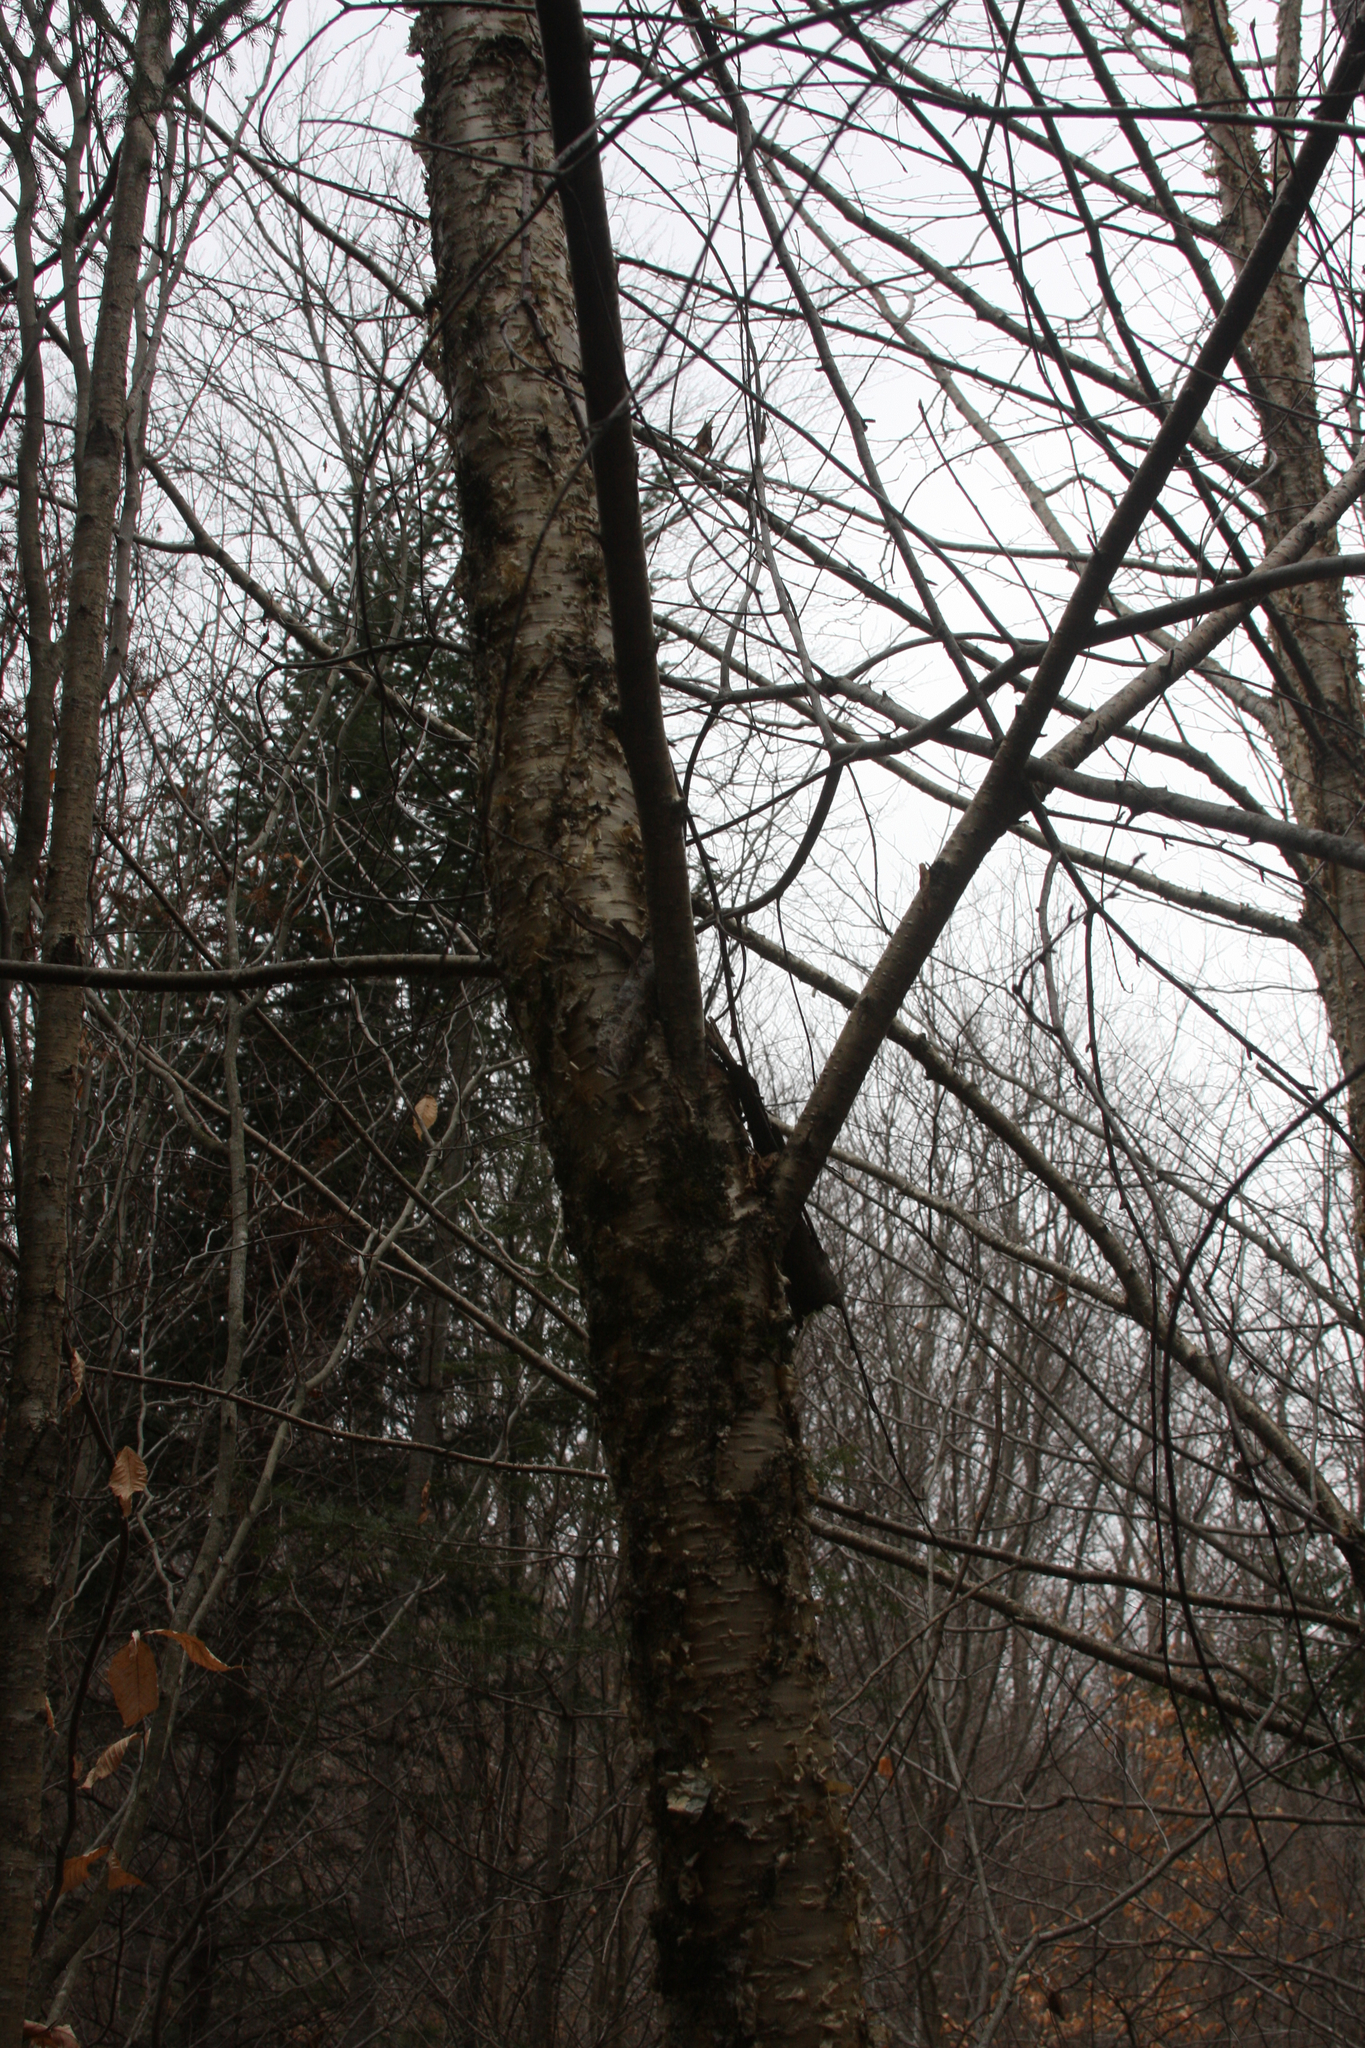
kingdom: Plantae
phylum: Tracheophyta
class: Magnoliopsida
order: Fagales
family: Betulaceae
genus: Betula
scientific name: Betula alleghaniensis
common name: Yellow birch
